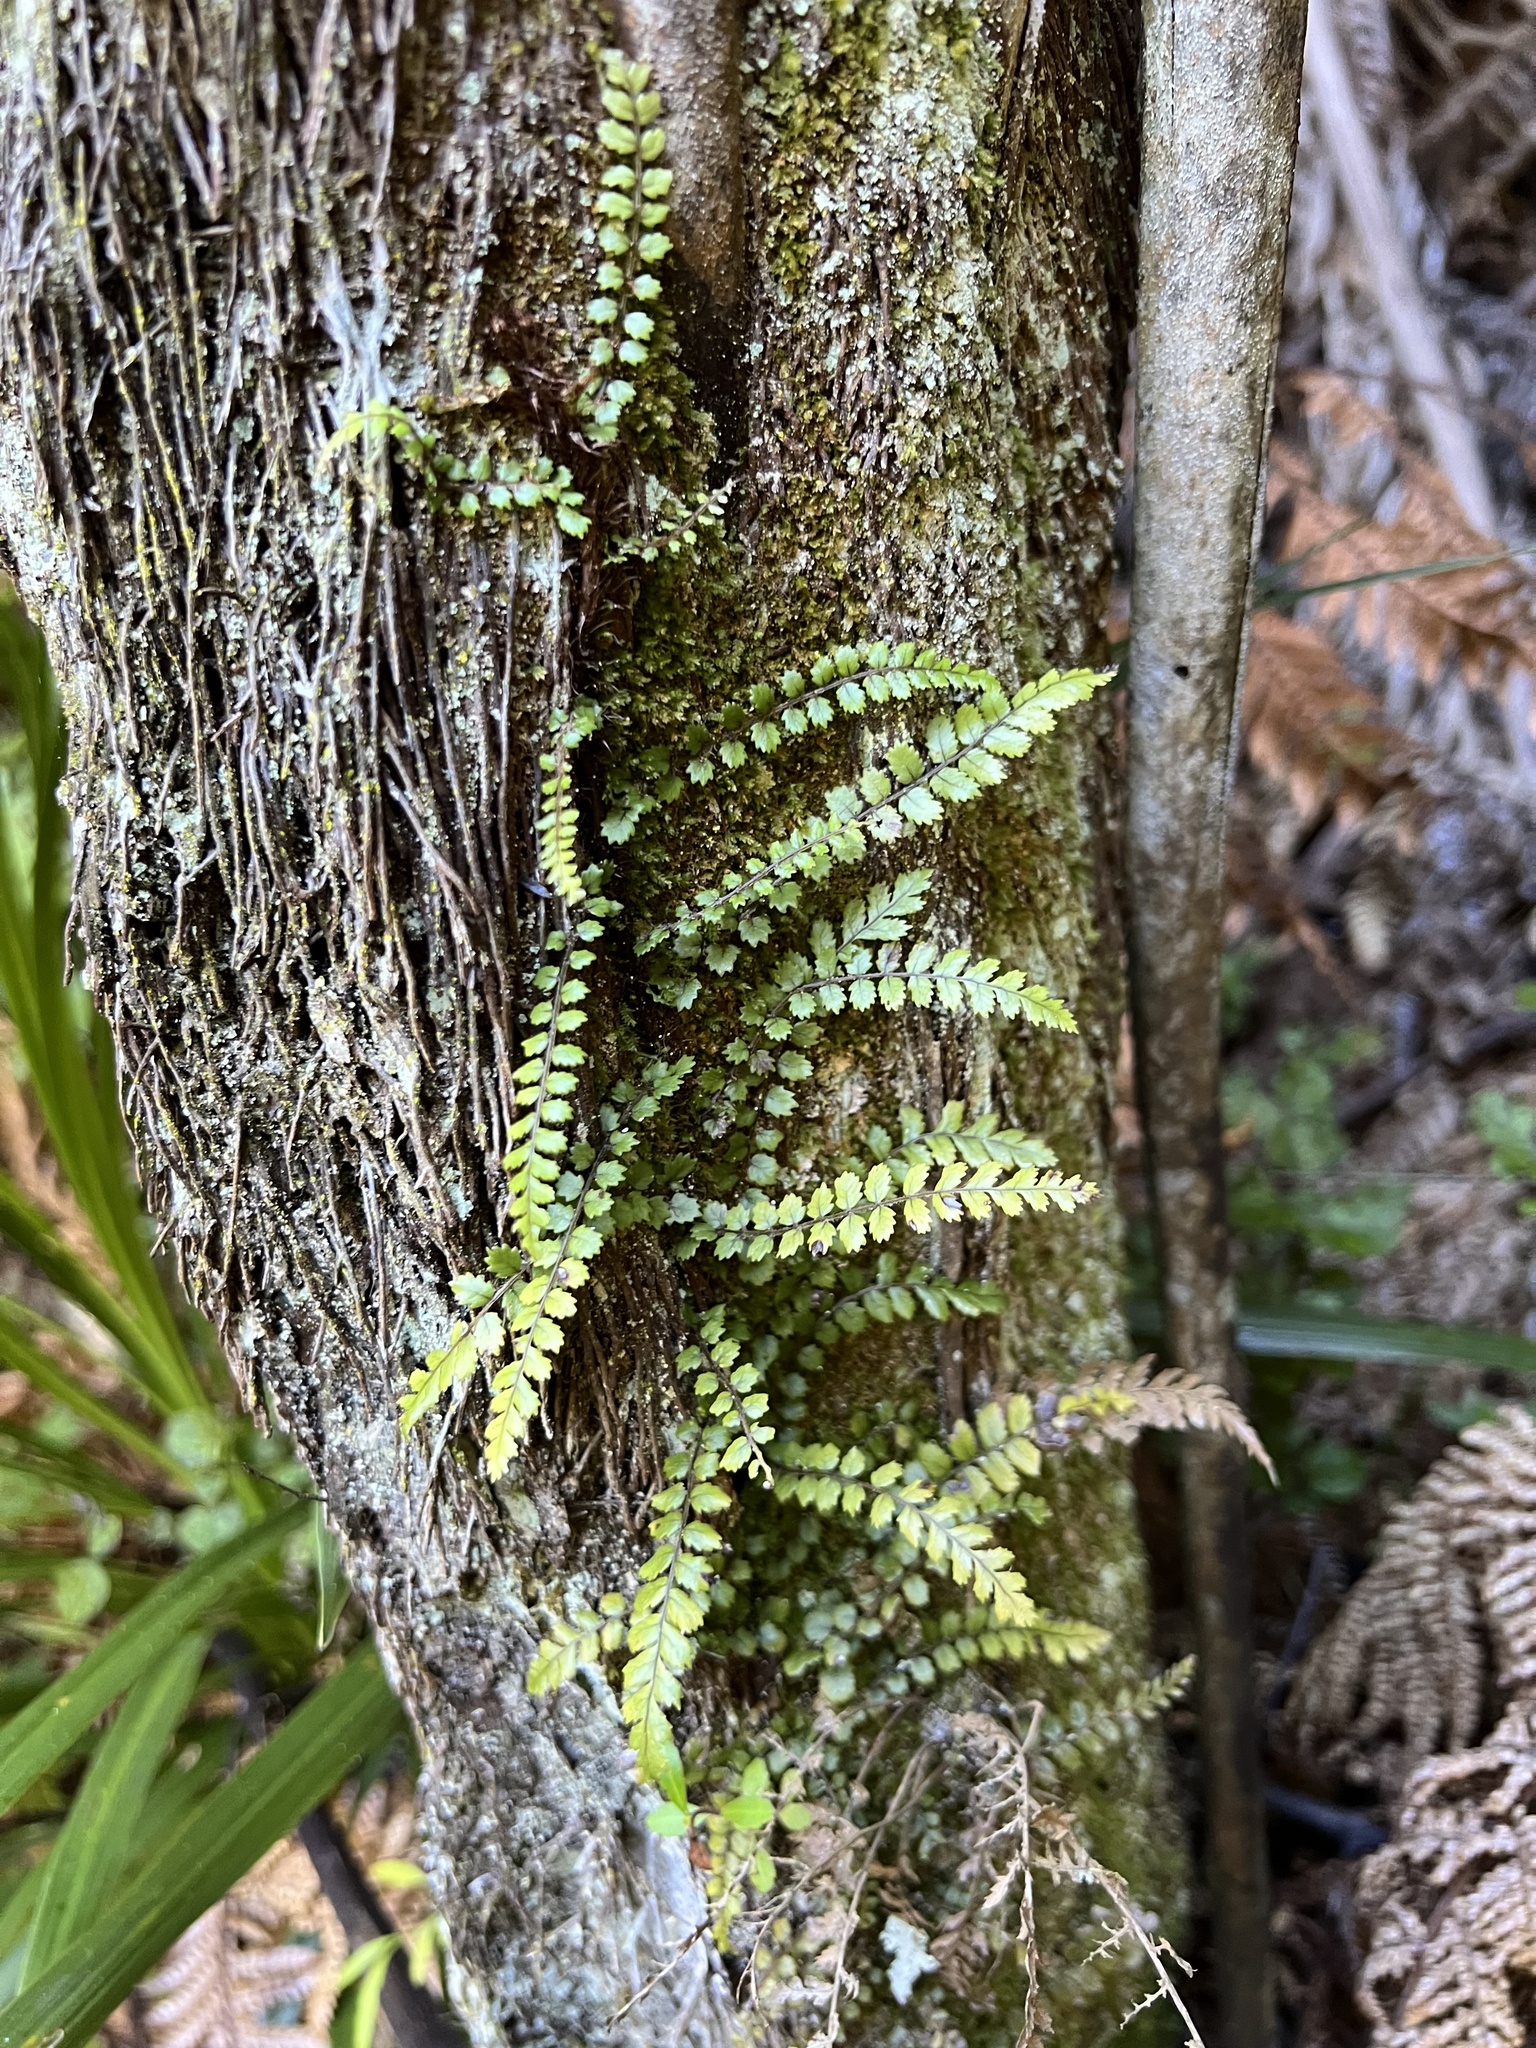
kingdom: Plantae
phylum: Tracheophyta
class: Polypodiopsida
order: Polypodiales
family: Blechnaceae
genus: Icarus
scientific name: Icarus filiformis
